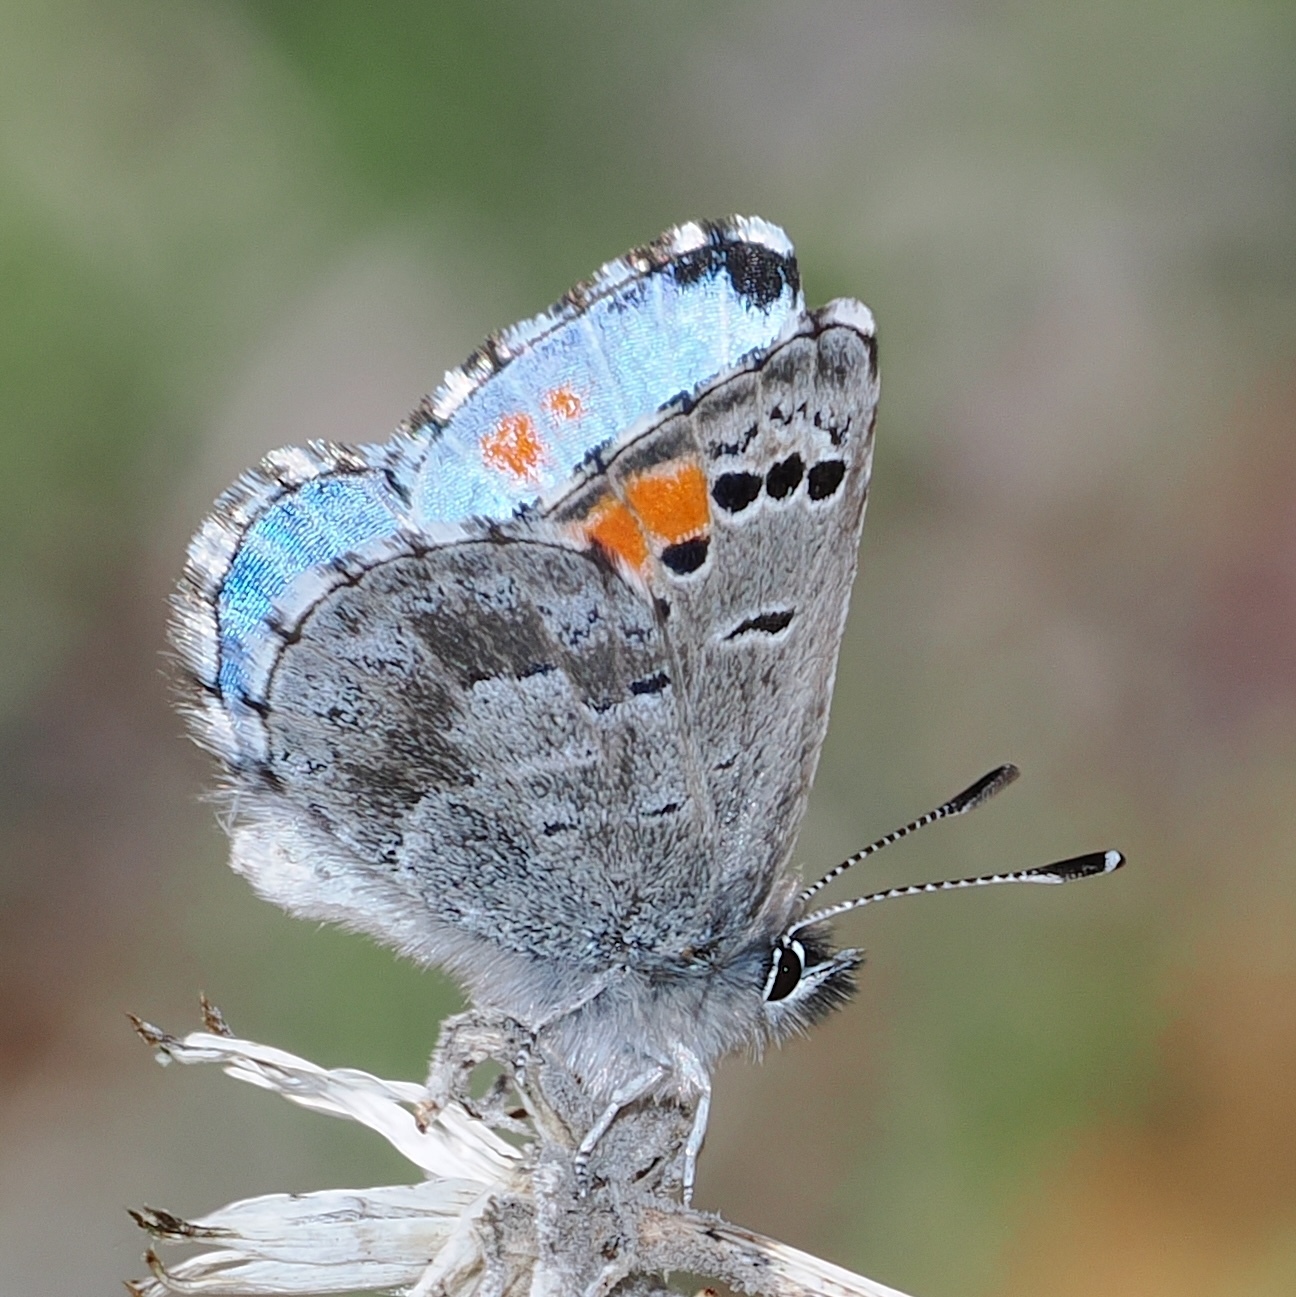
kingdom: Animalia
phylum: Arthropoda
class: Insecta
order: Lepidoptera
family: Lycaenidae
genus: Philotes
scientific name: Philotes sonorensis
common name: Sonoran blue
